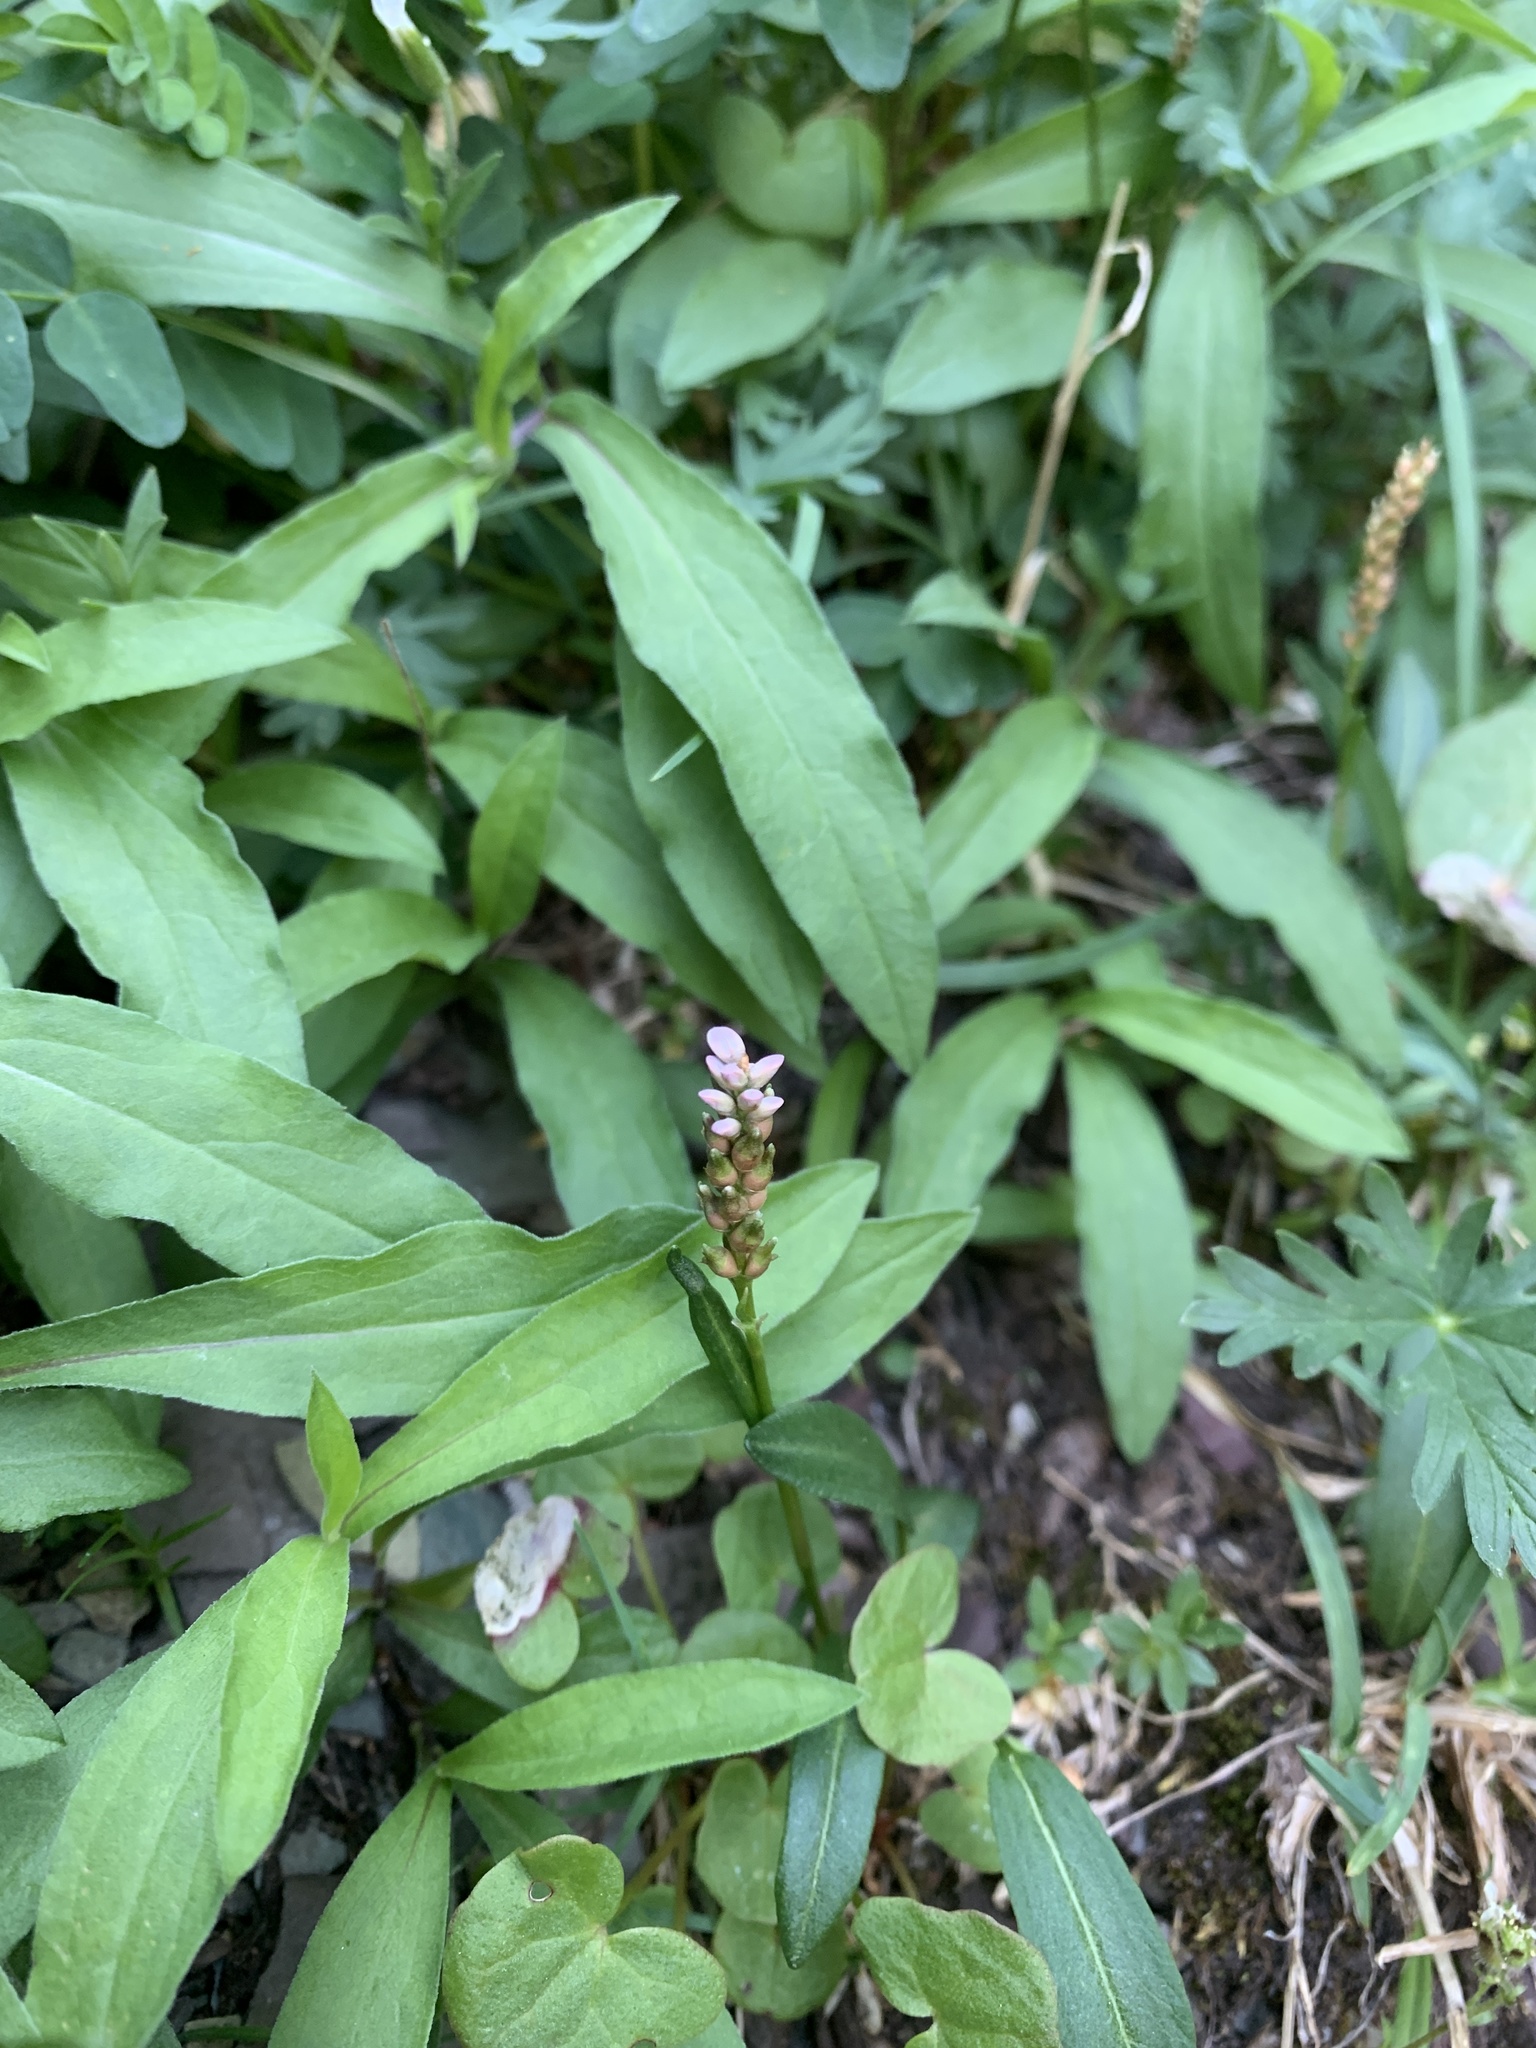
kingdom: Plantae
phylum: Tracheophyta
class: Magnoliopsida
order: Caryophyllales
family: Polygonaceae
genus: Bistorta
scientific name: Bistorta vivipara
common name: Alpine bistort
